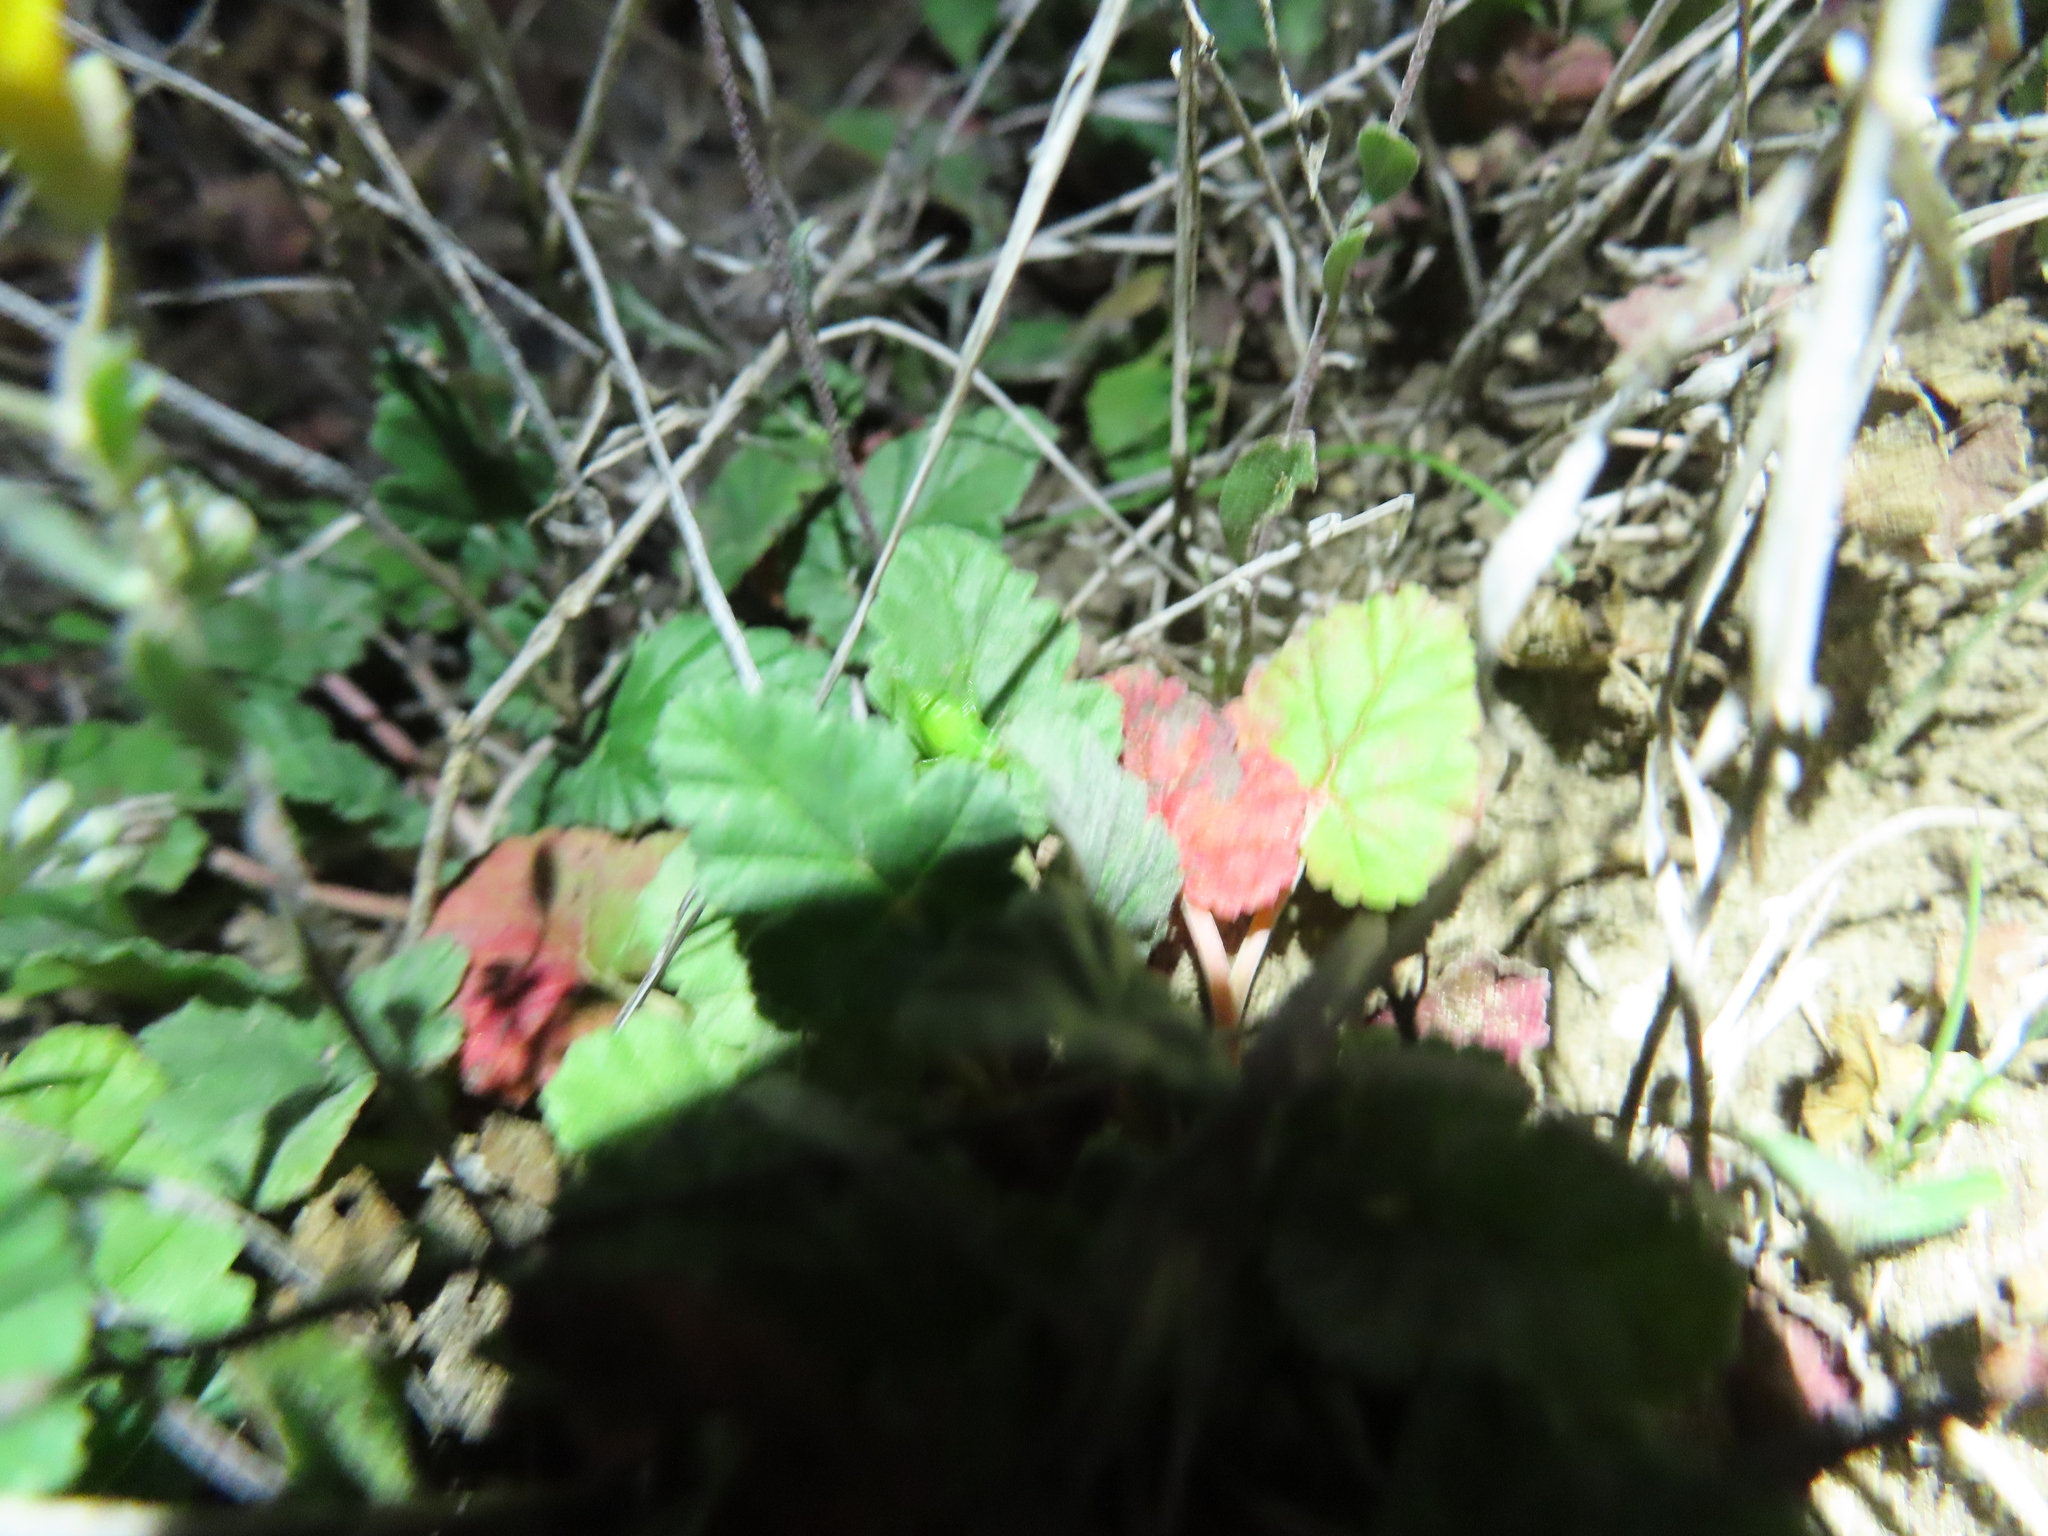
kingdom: Plantae
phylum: Tracheophyta
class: Magnoliopsida
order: Geraniales
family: Geraniaceae
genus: Erodium
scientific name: Erodium texanum
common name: Texas stork's-bill
